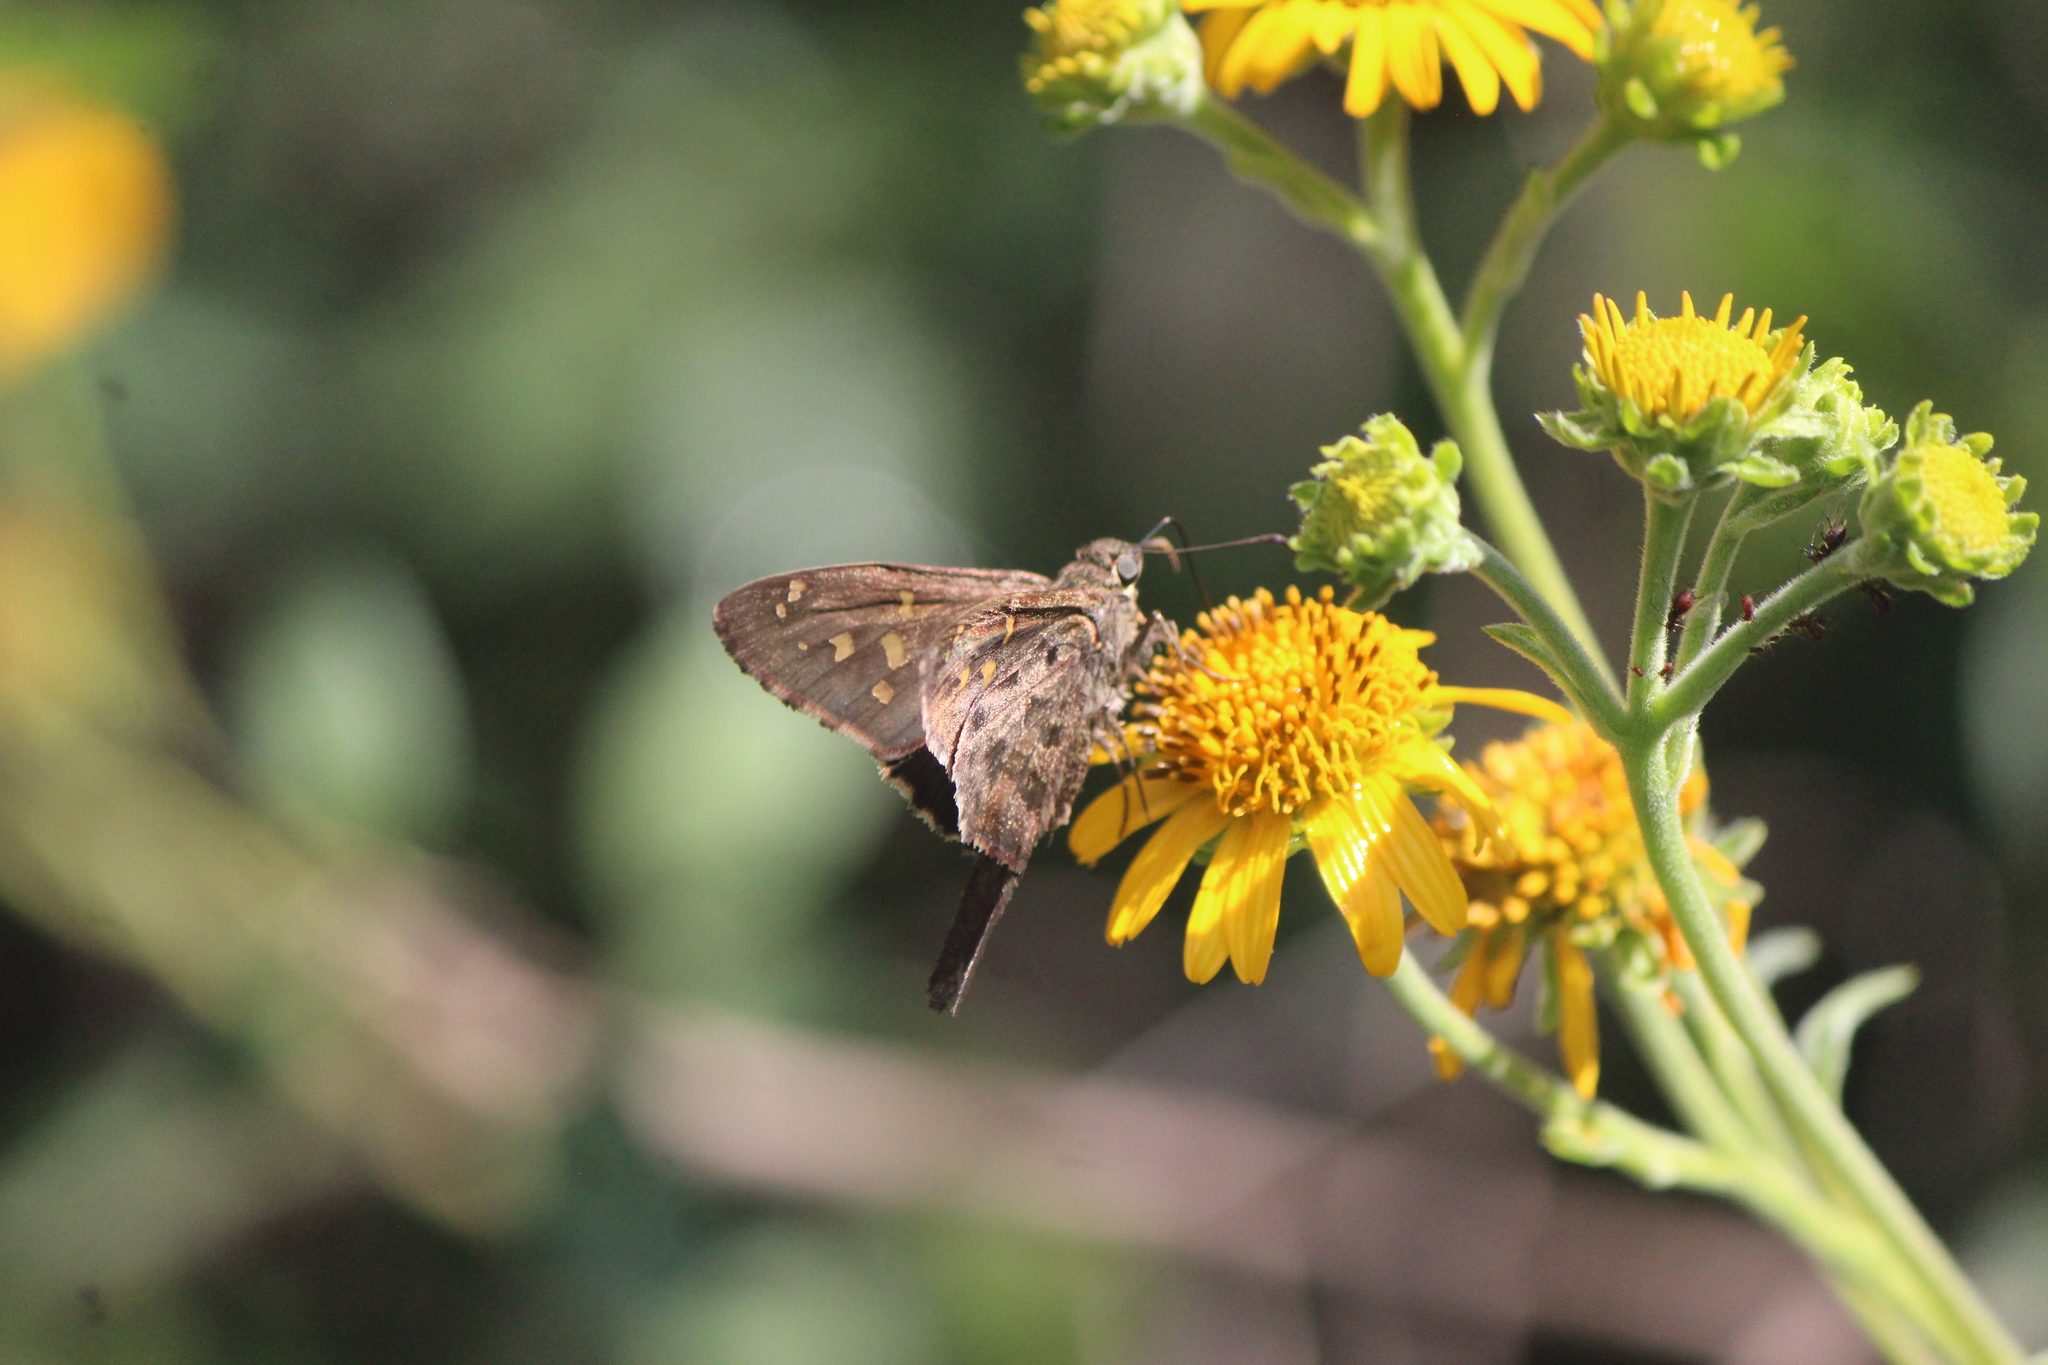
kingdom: Animalia
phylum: Arthropoda
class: Insecta
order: Lepidoptera
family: Hesperiidae
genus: Thorybes
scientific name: Thorybes
